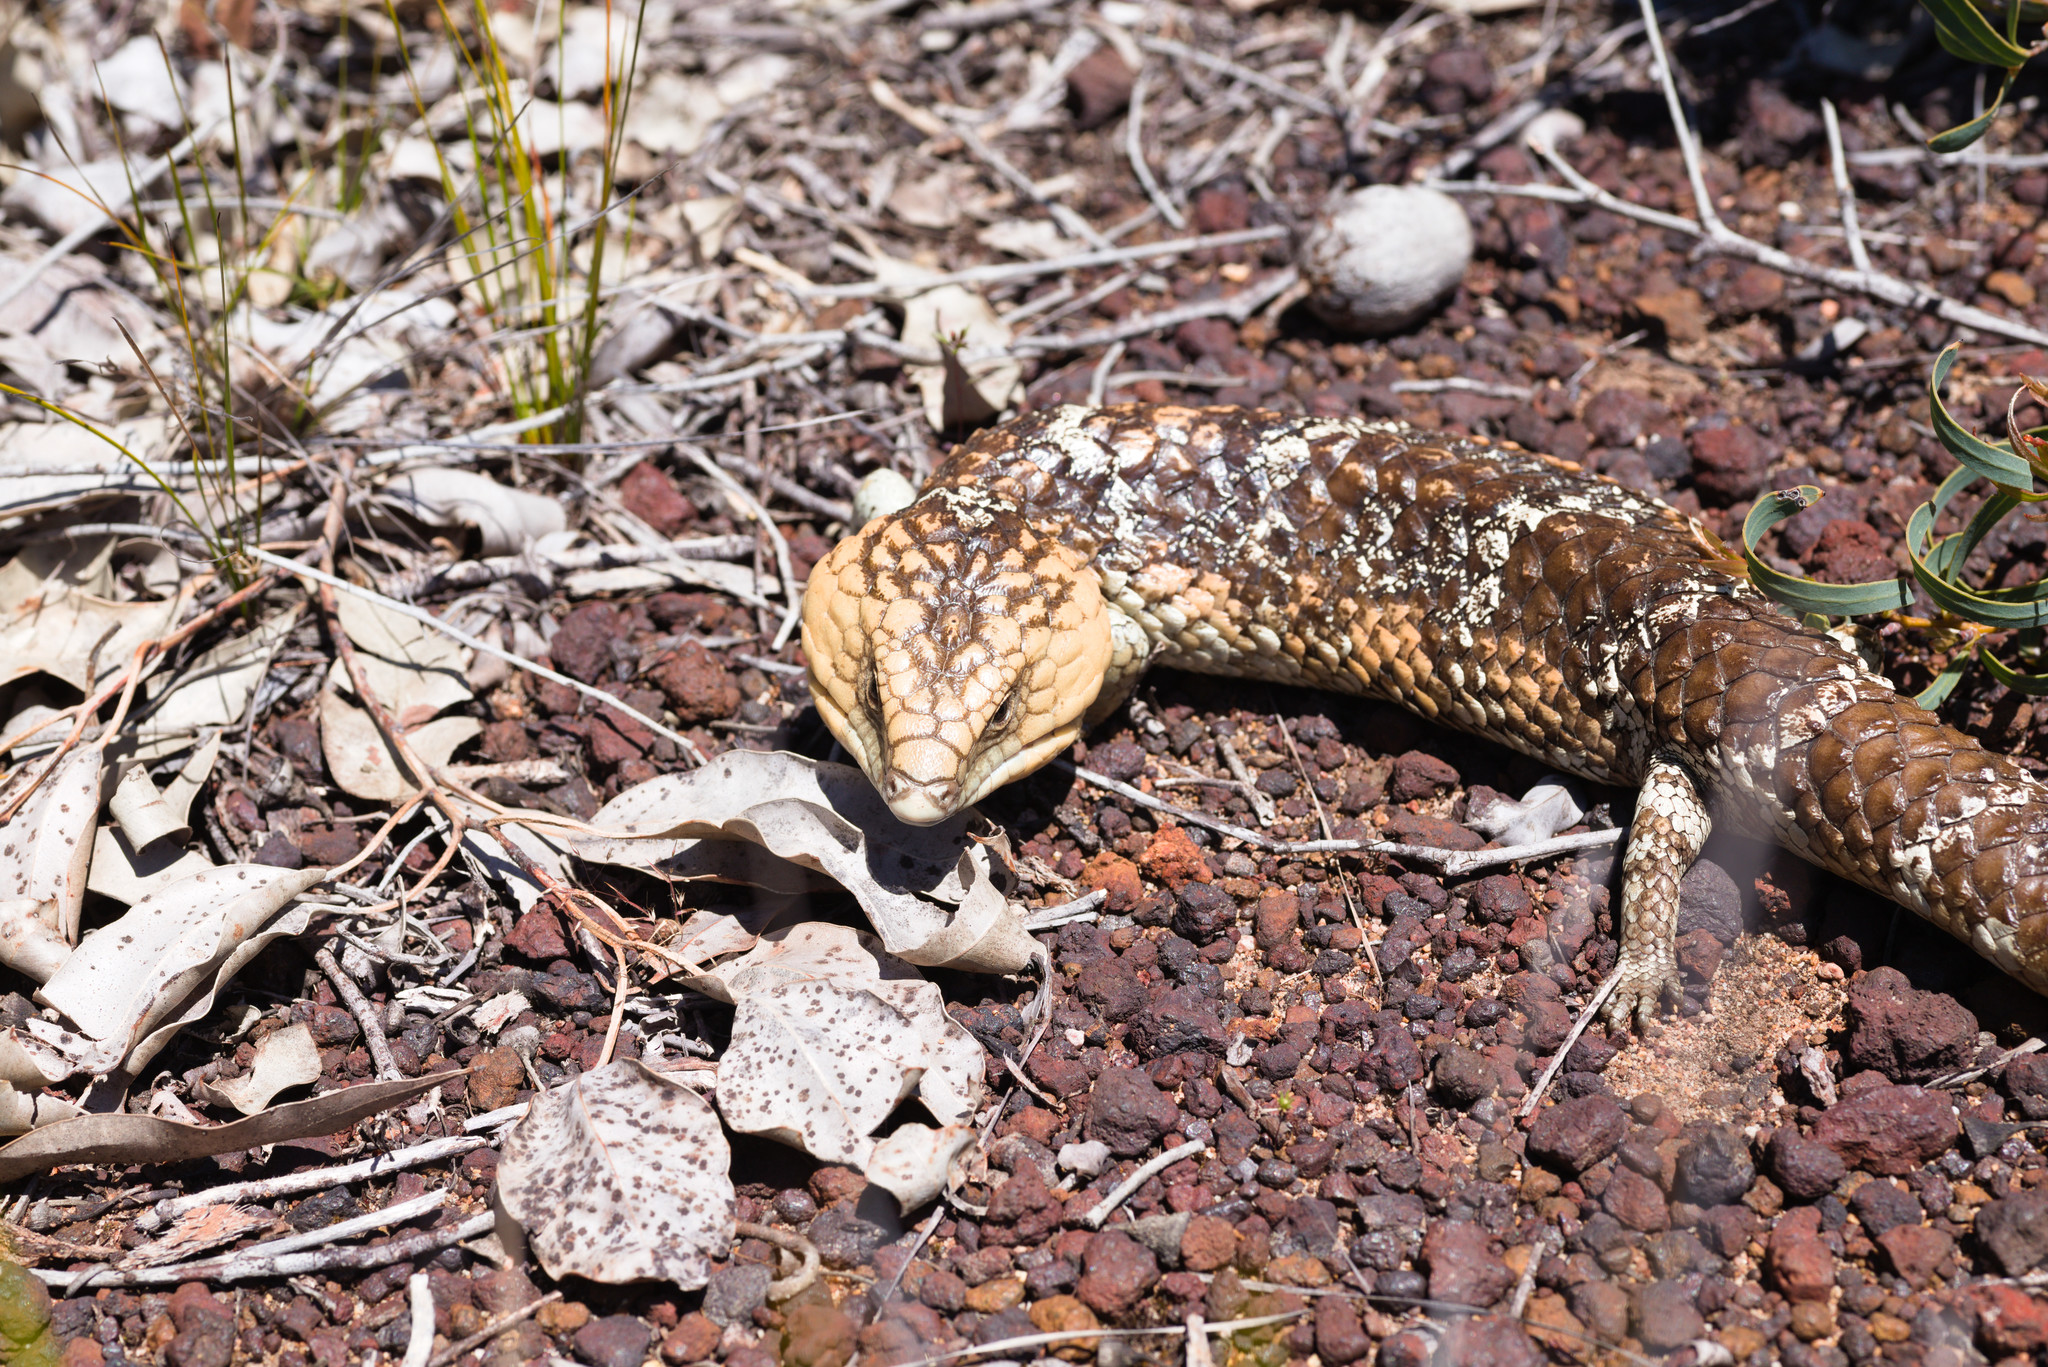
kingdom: Animalia
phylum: Chordata
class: Squamata
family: Scincidae
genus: Tiliqua
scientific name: Tiliqua rugosa
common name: Pinecone lizard
